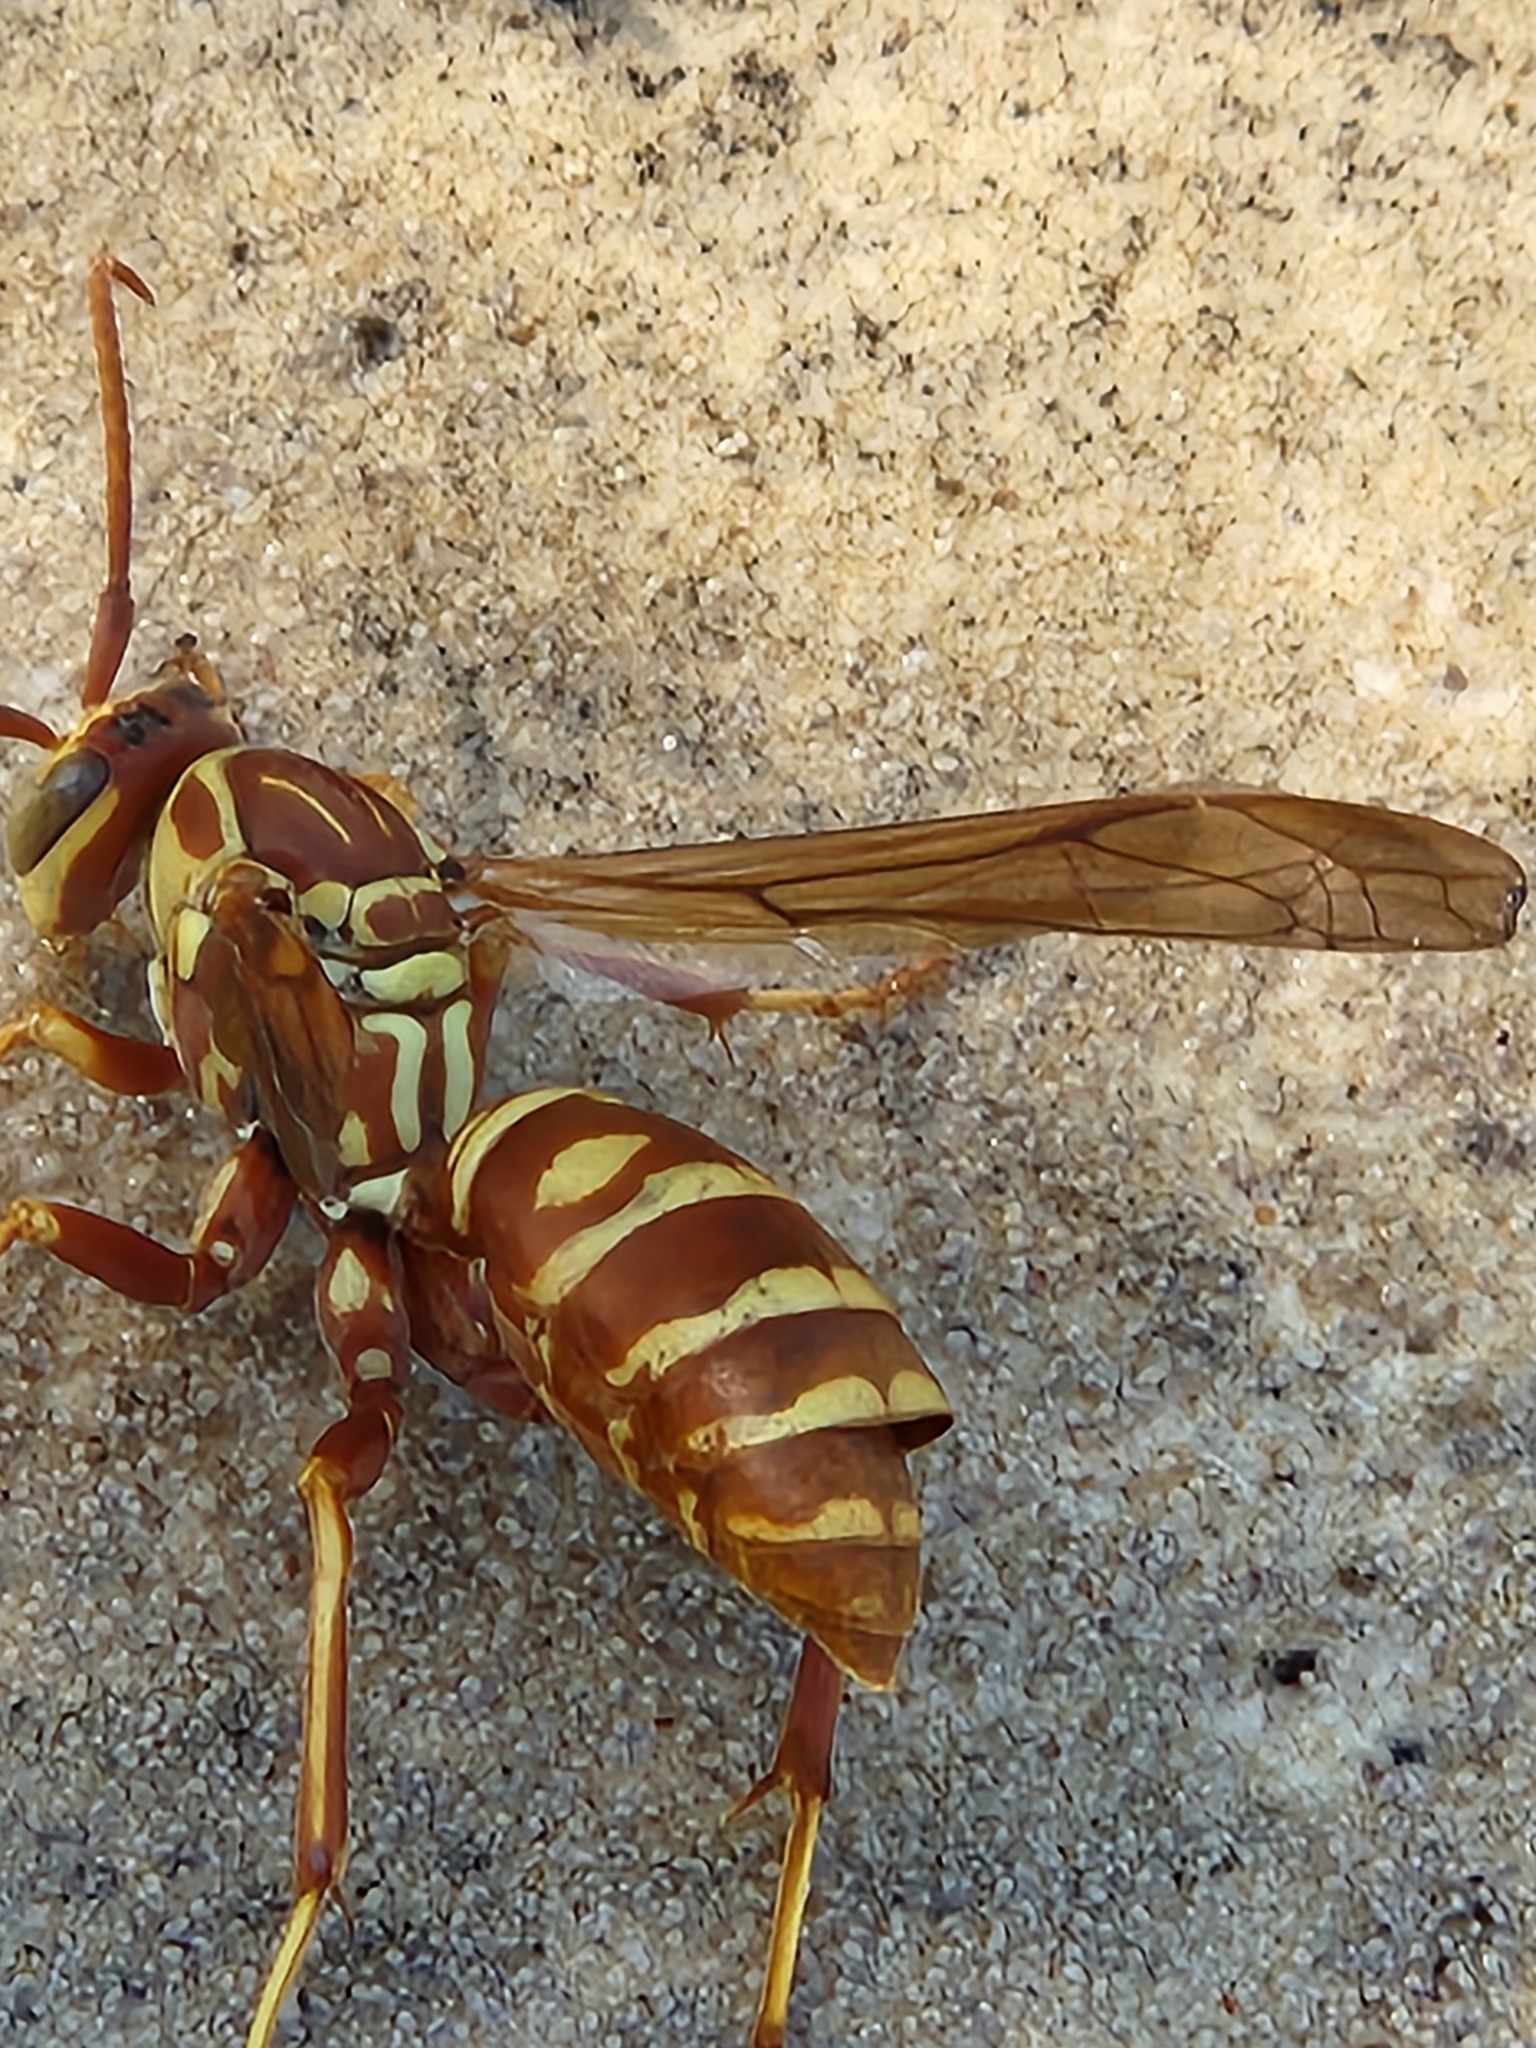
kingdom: Animalia
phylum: Arthropoda
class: Insecta
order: Hymenoptera
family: Eumenidae
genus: Polistes
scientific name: Polistes apachus
